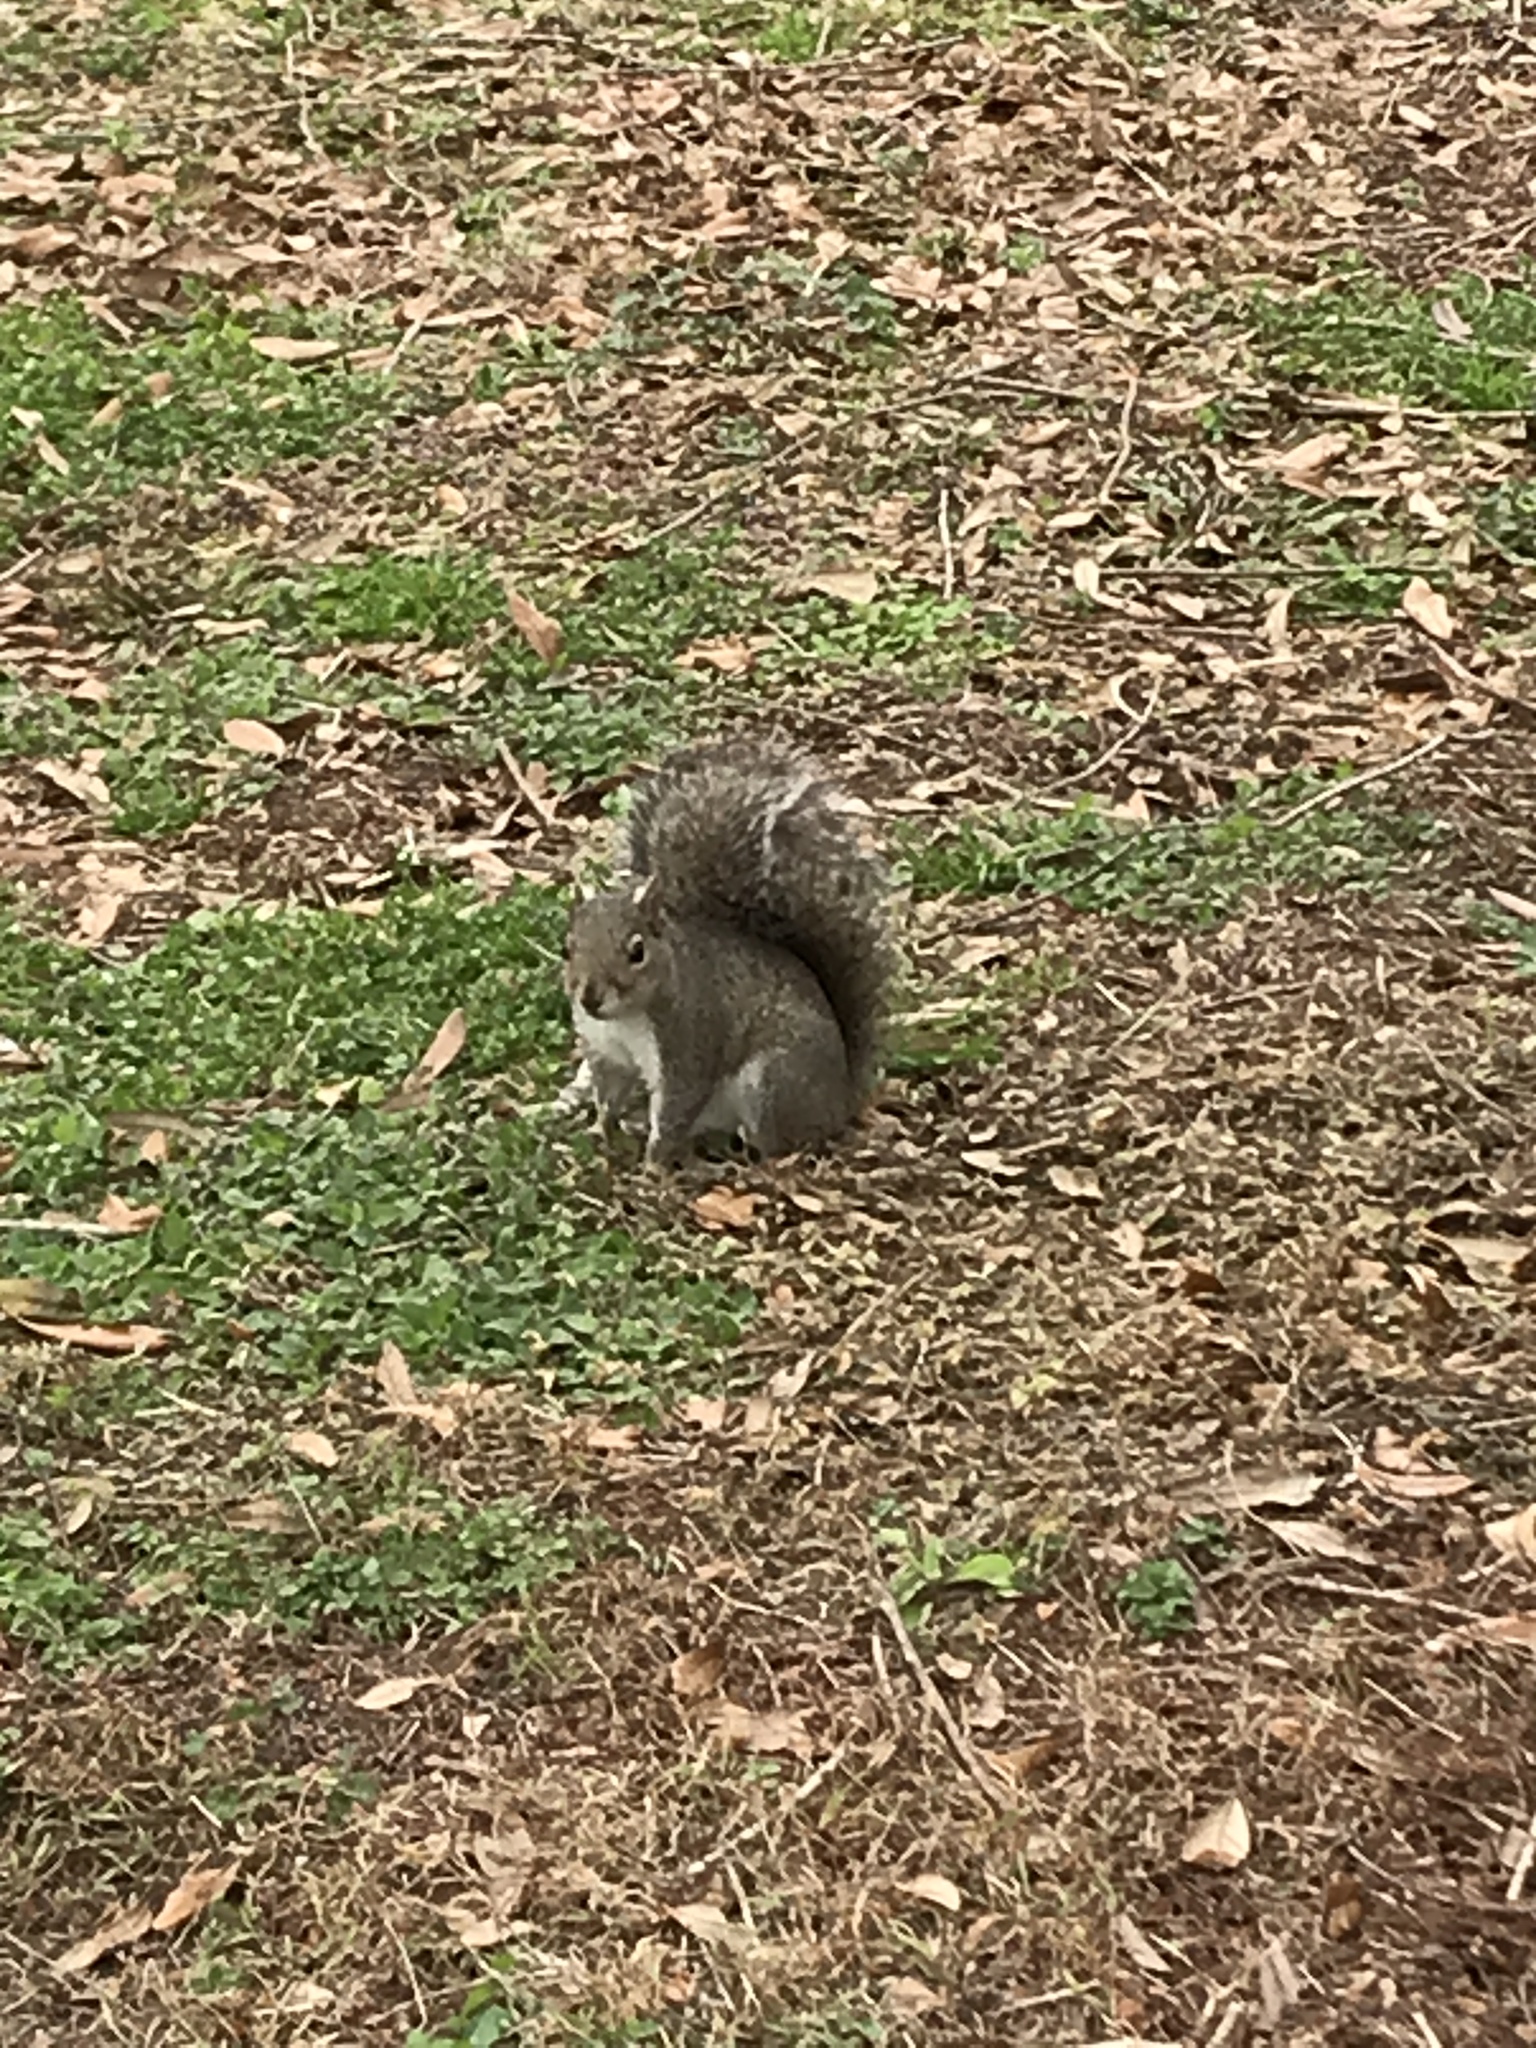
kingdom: Animalia
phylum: Chordata
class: Mammalia
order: Rodentia
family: Sciuridae
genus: Sciurus
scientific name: Sciurus carolinensis
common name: Eastern gray squirrel
